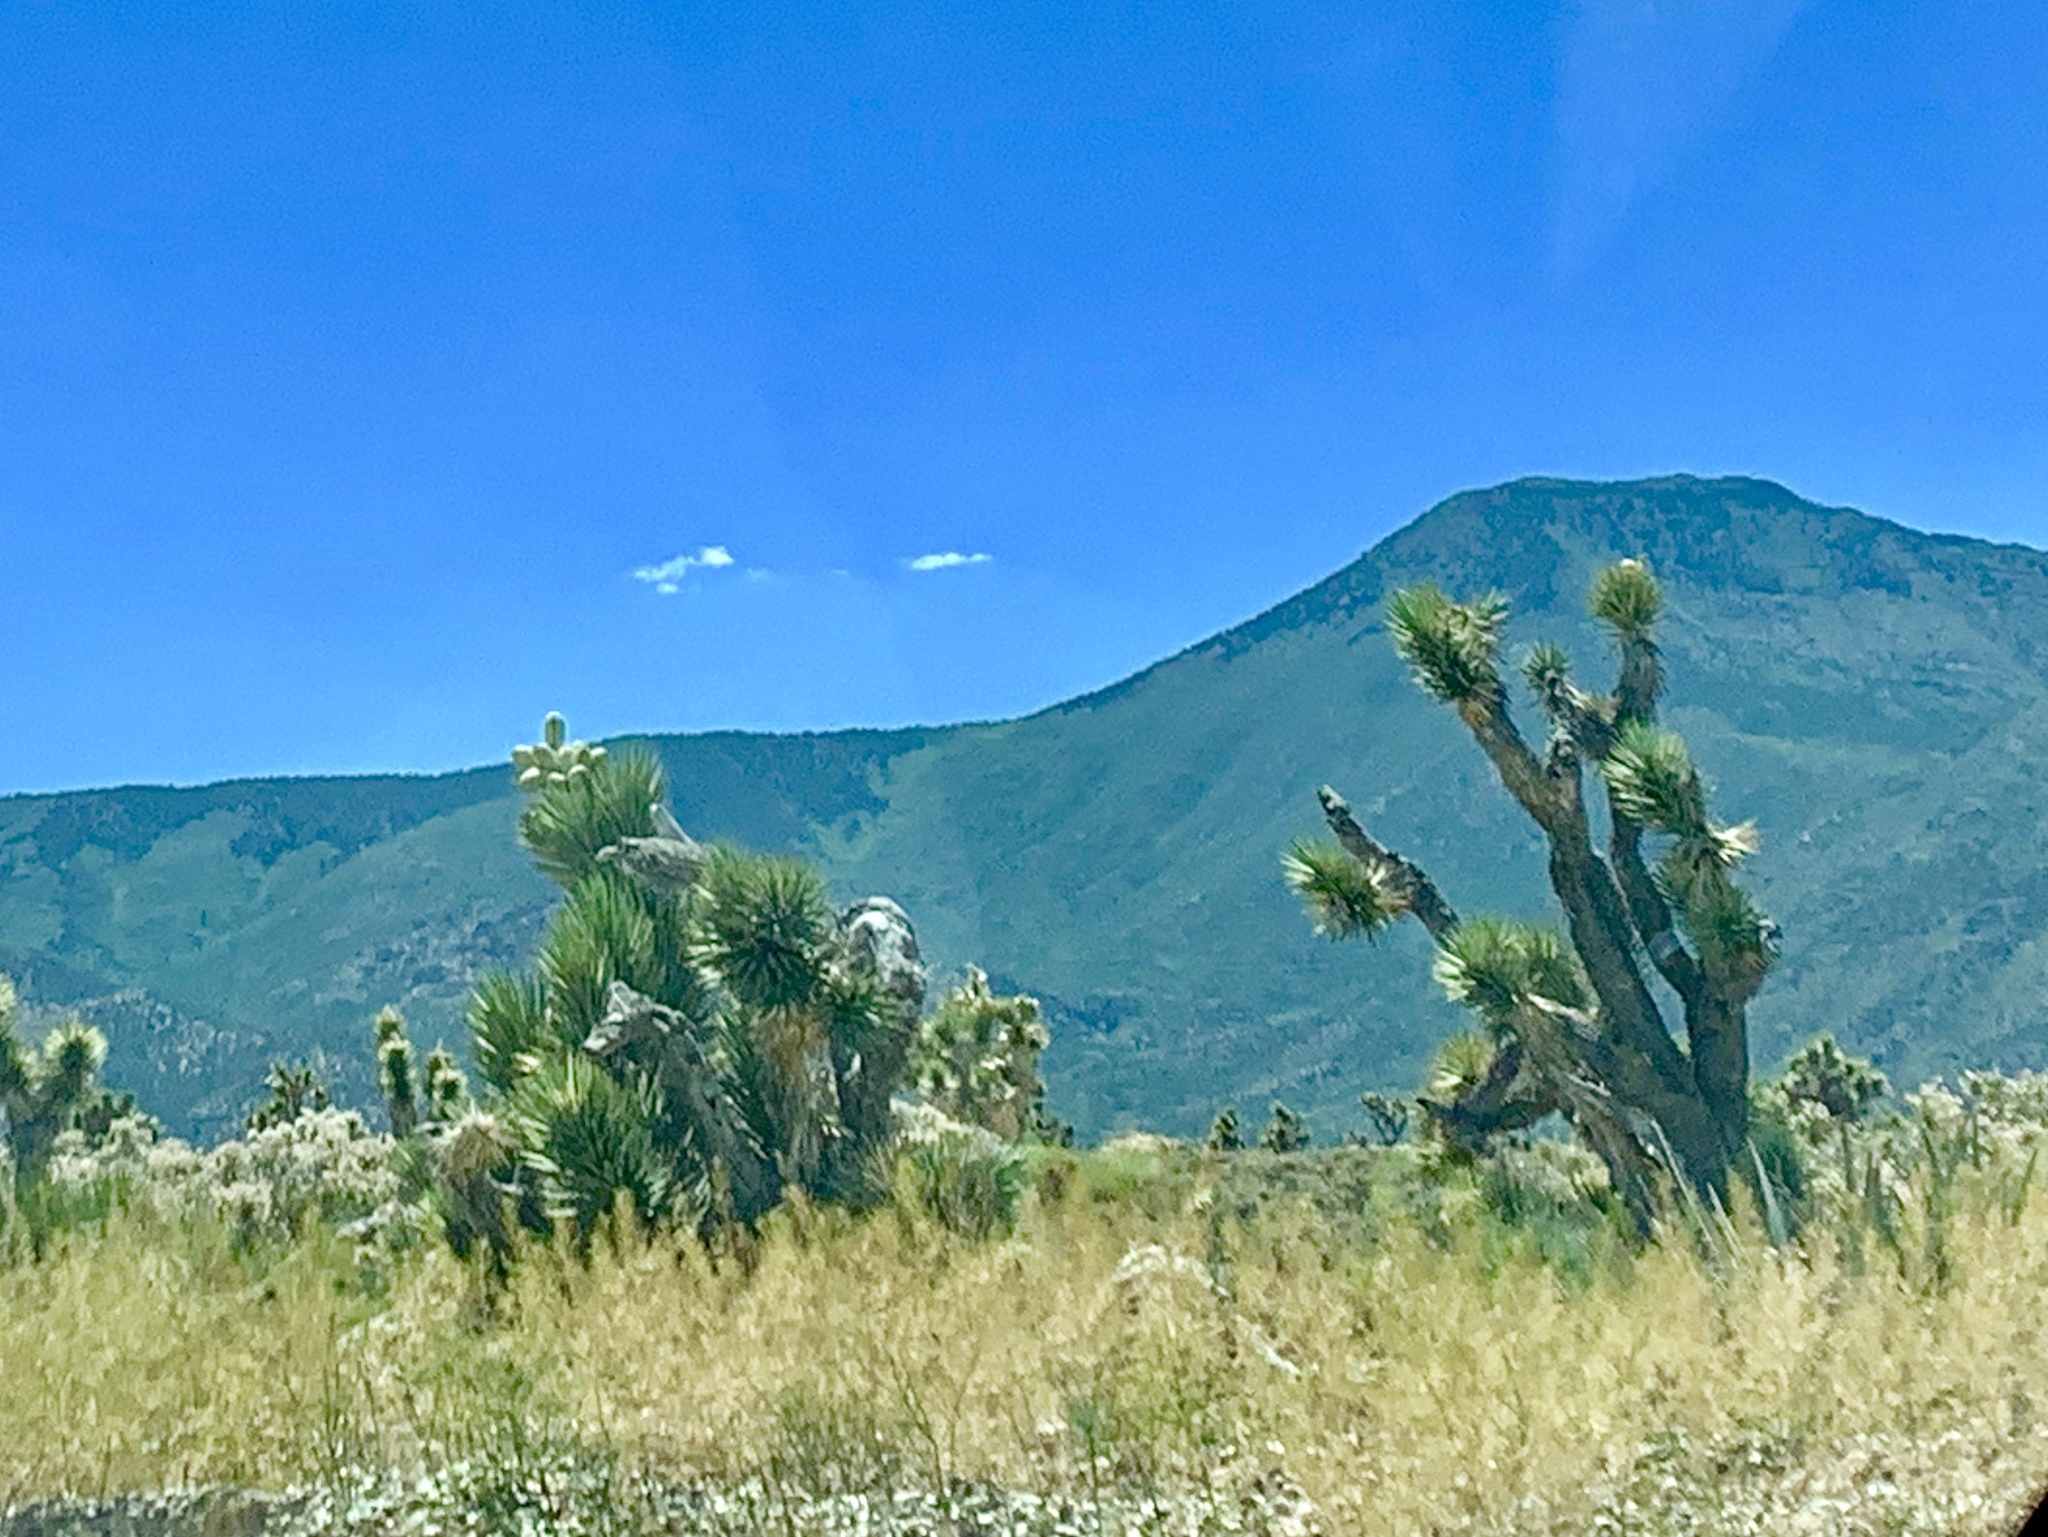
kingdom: Plantae
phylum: Tracheophyta
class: Liliopsida
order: Asparagales
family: Asparagaceae
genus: Yucca
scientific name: Yucca brevifolia
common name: Joshua tree
